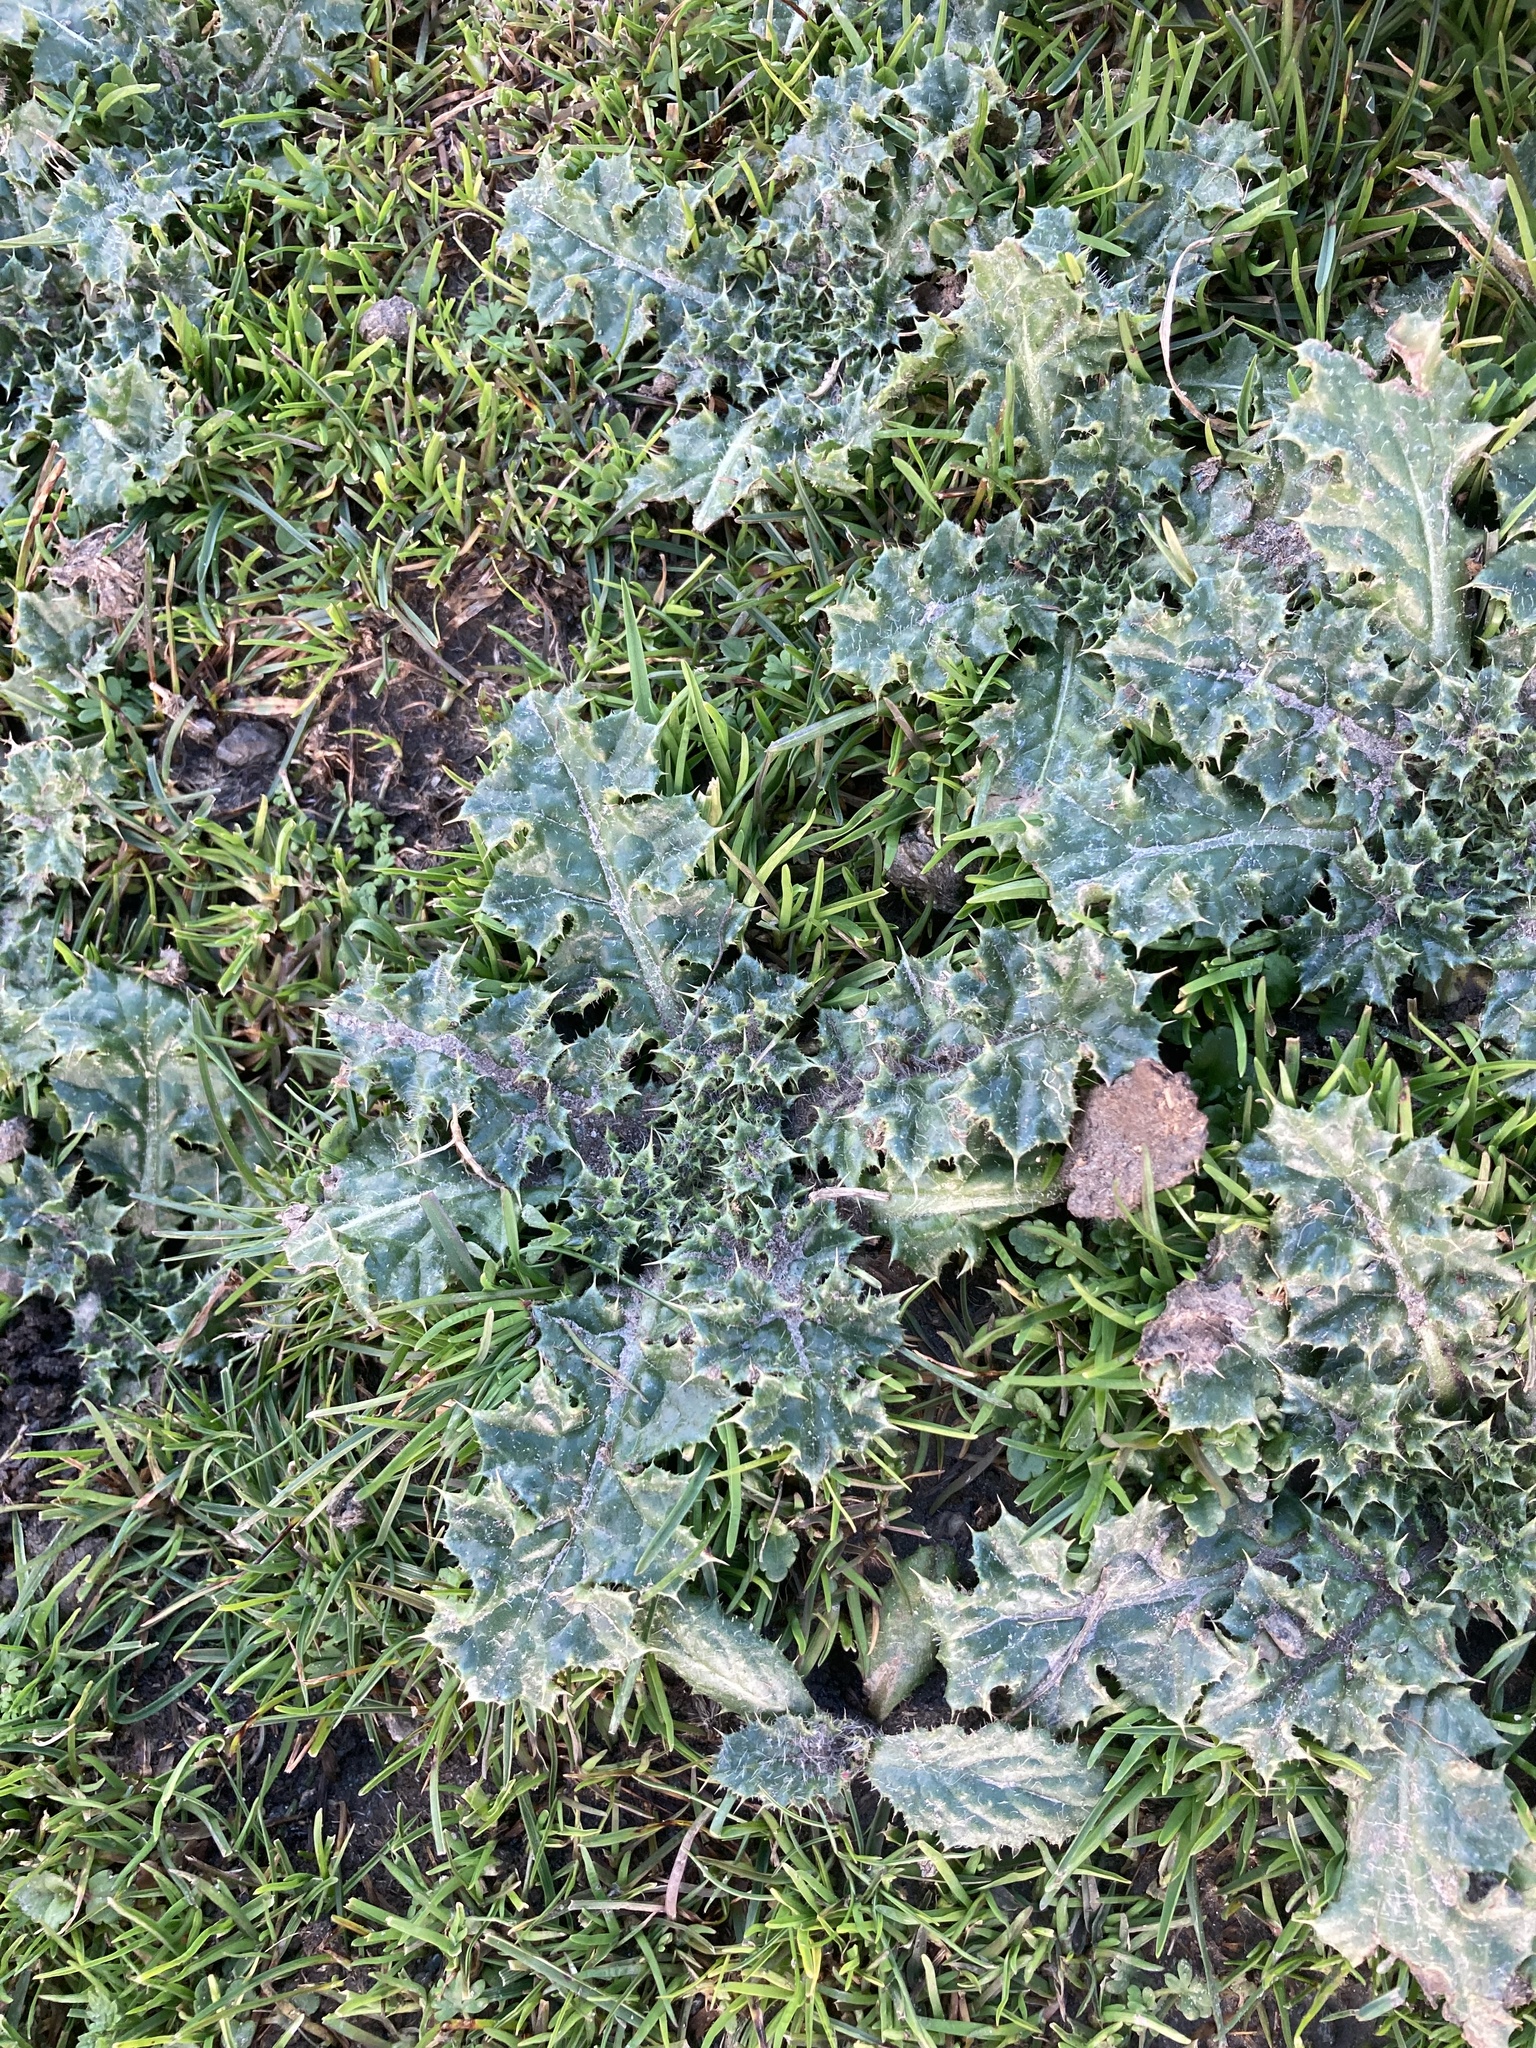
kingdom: Plantae
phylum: Tracheophyta
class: Magnoliopsida
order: Asterales
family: Asteraceae
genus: Cirsium
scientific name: Cirsium arvense
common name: Creeping thistle
